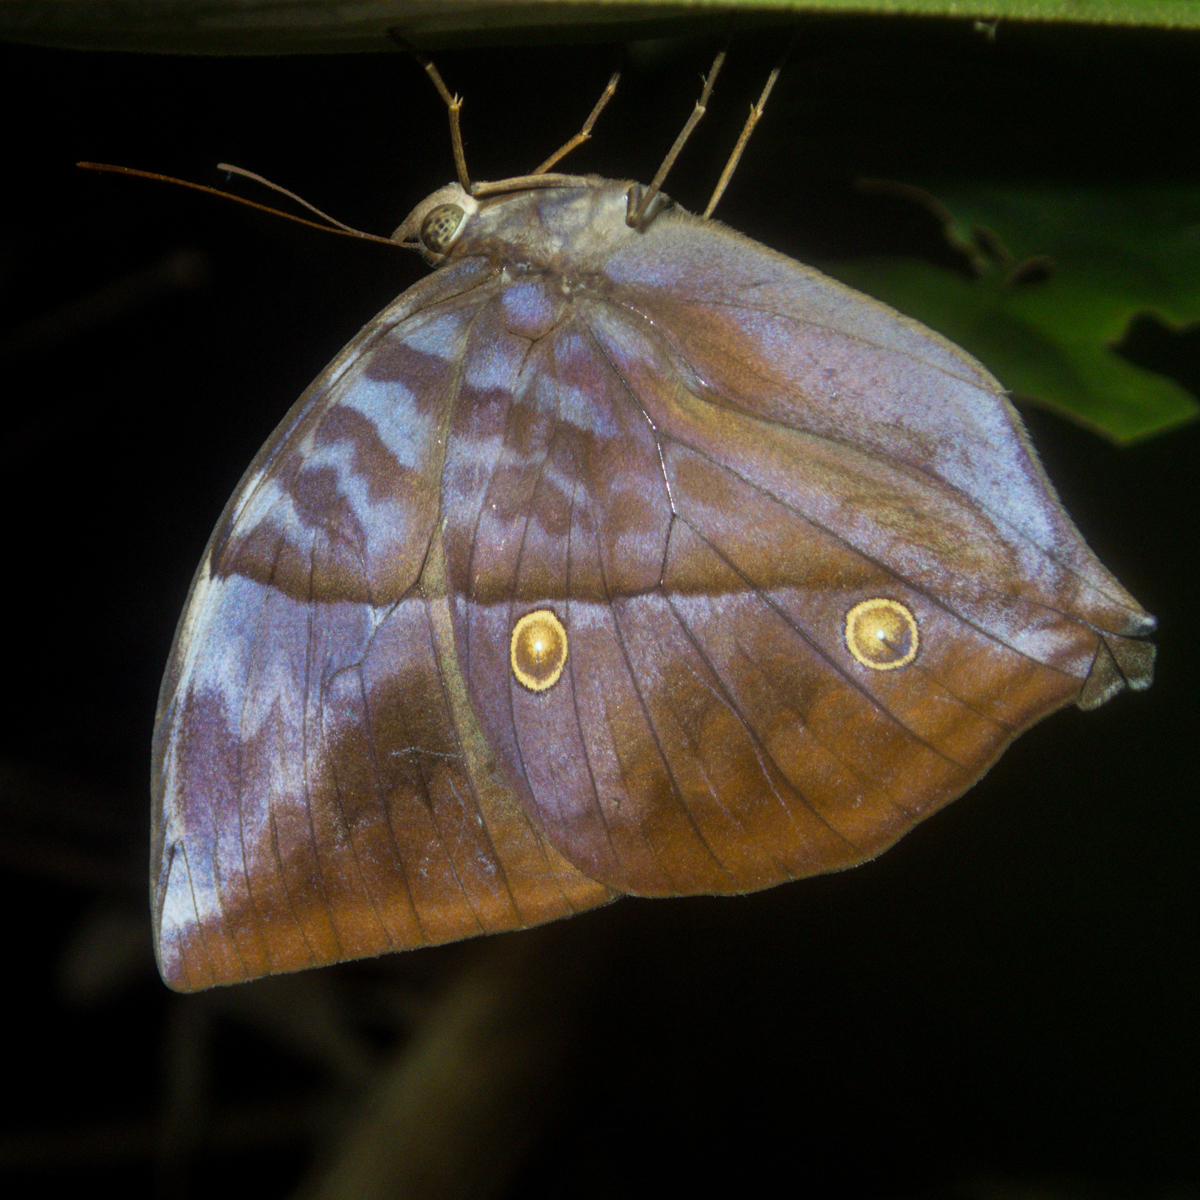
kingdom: Animalia
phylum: Arthropoda
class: Insecta
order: Lepidoptera
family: Nymphalidae
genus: Zeuxidia
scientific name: Zeuxidia
